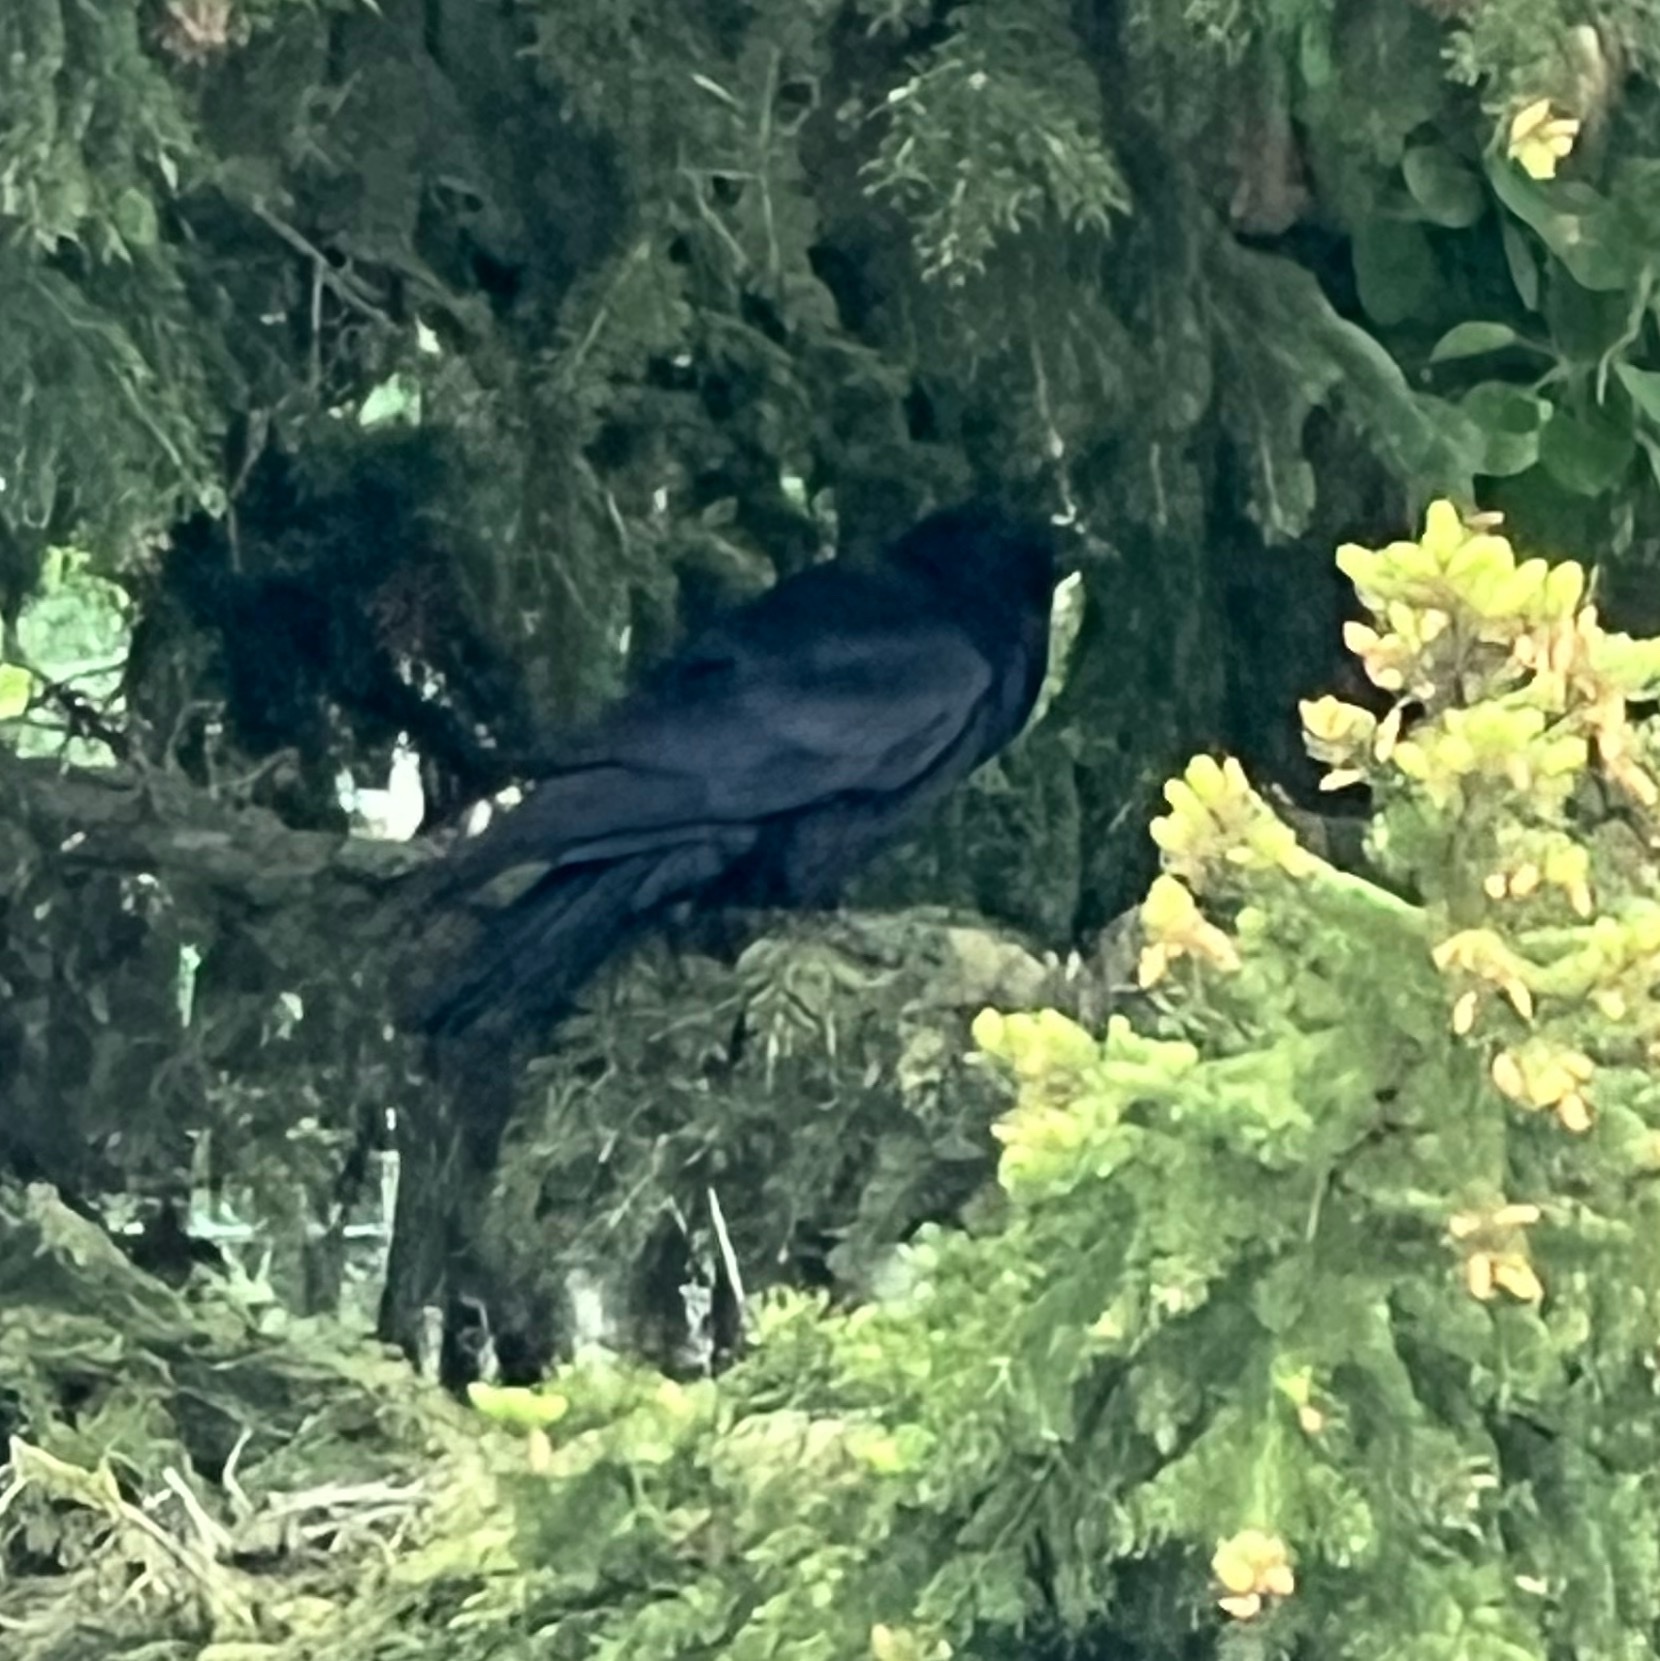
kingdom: Animalia
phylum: Chordata
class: Aves
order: Passeriformes
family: Corvidae
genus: Corvus
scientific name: Corvus corax
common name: Common raven
